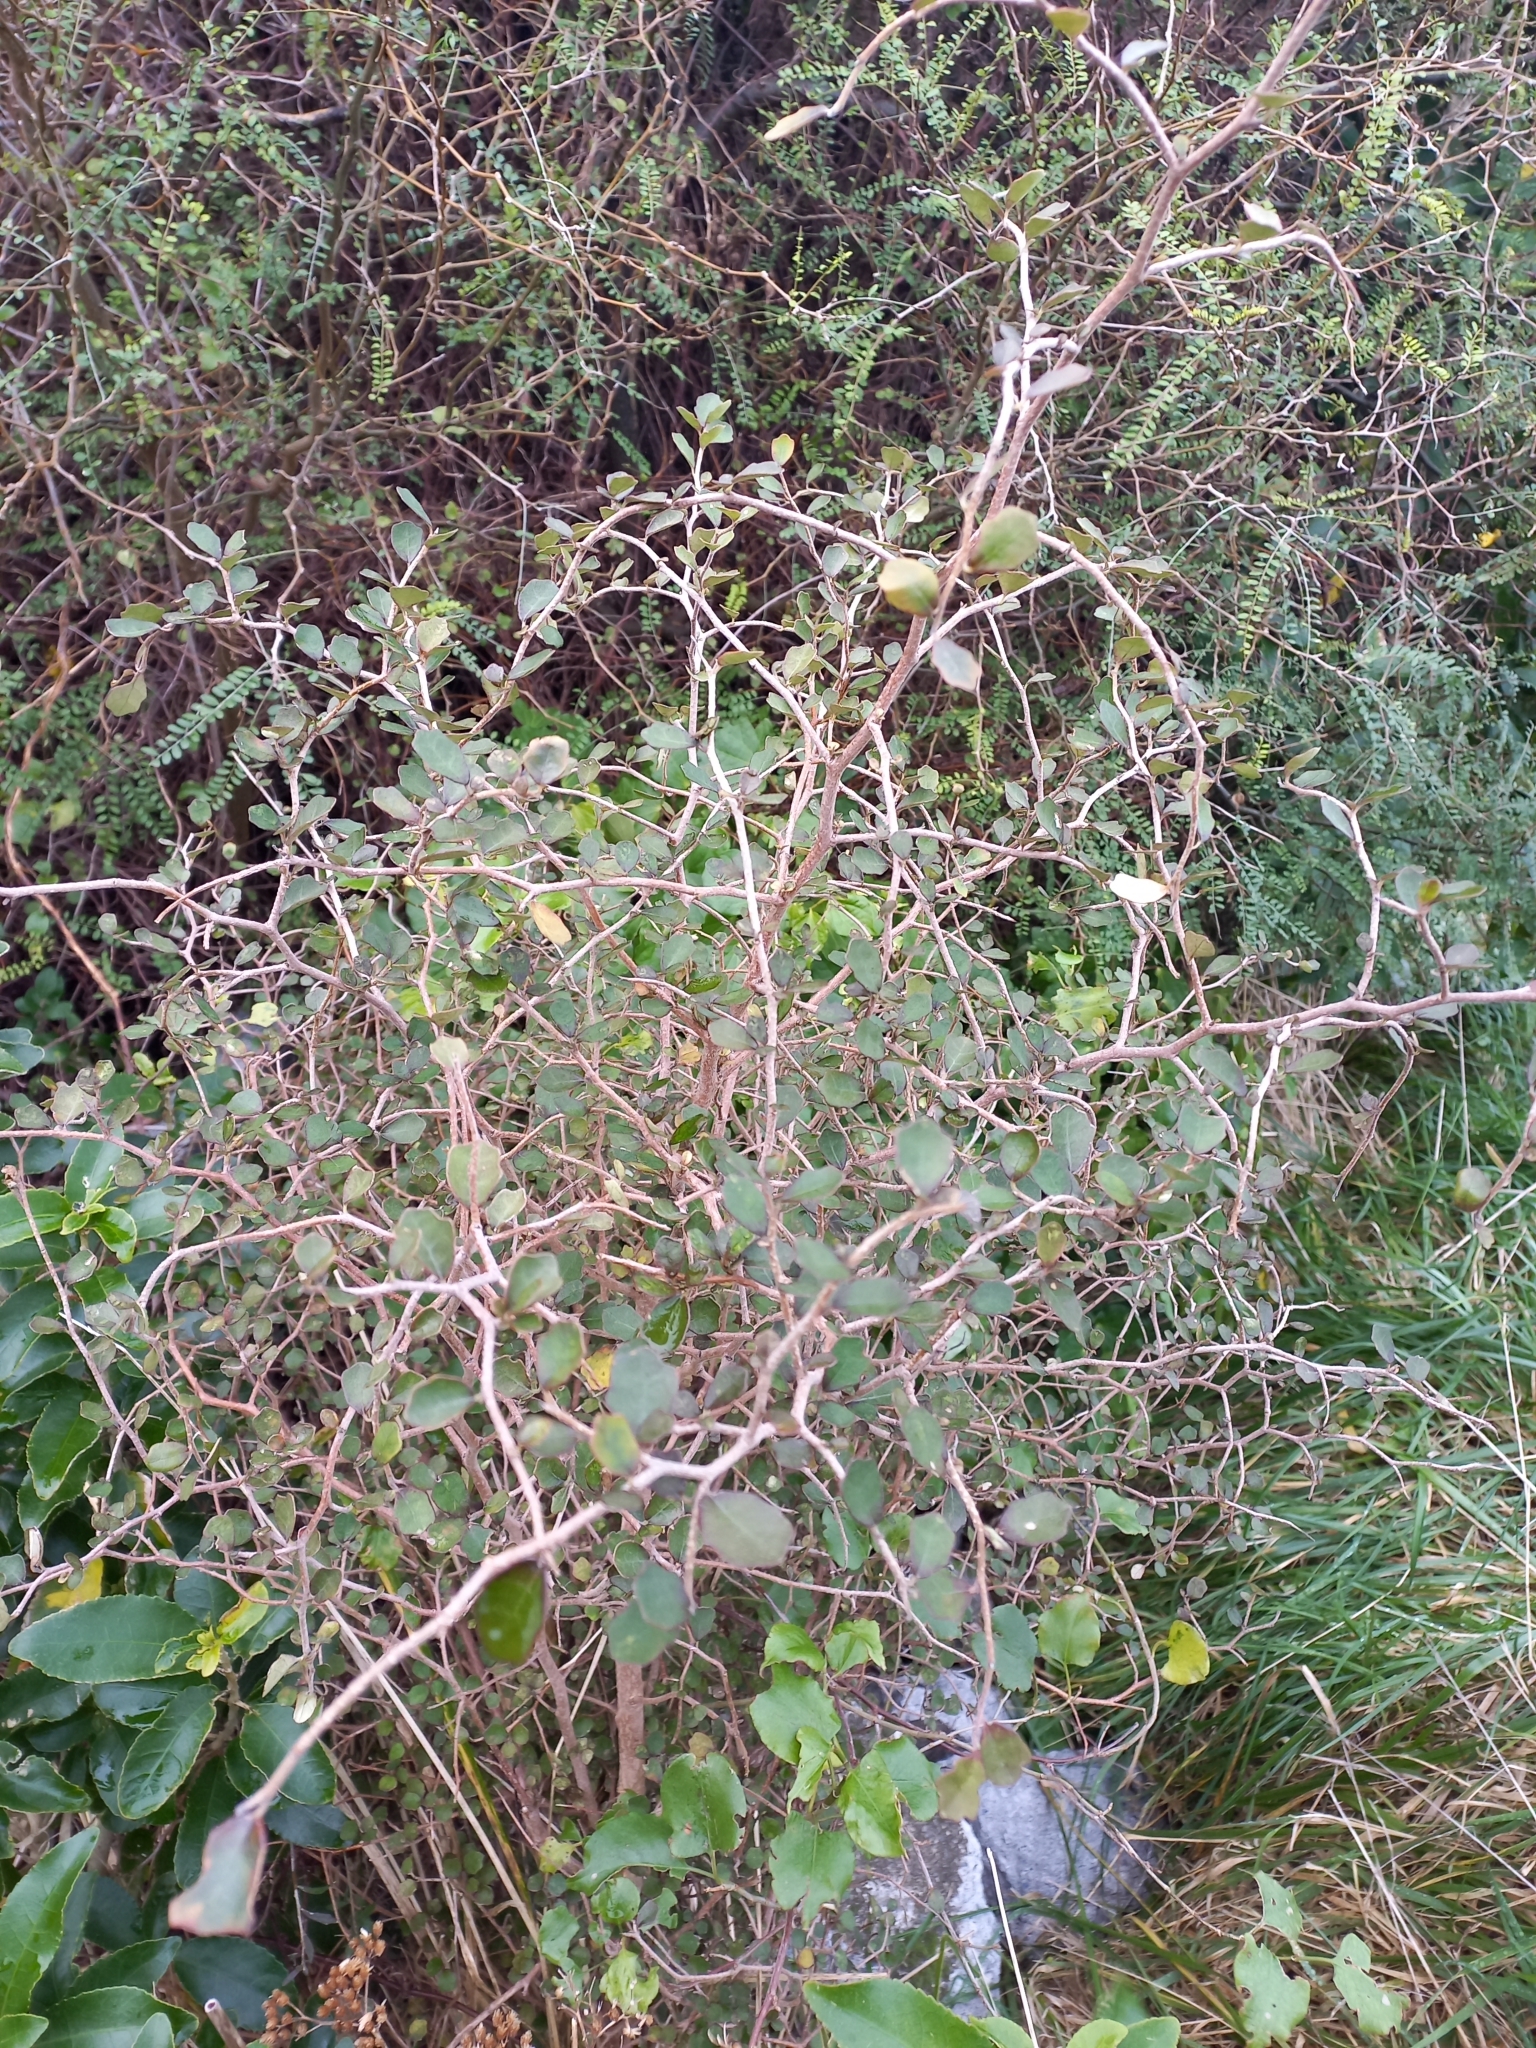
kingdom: Plantae
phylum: Tracheophyta
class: Magnoliopsida
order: Apiales
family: Pennantiaceae
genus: Pennantia
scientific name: Pennantia corymbosa
